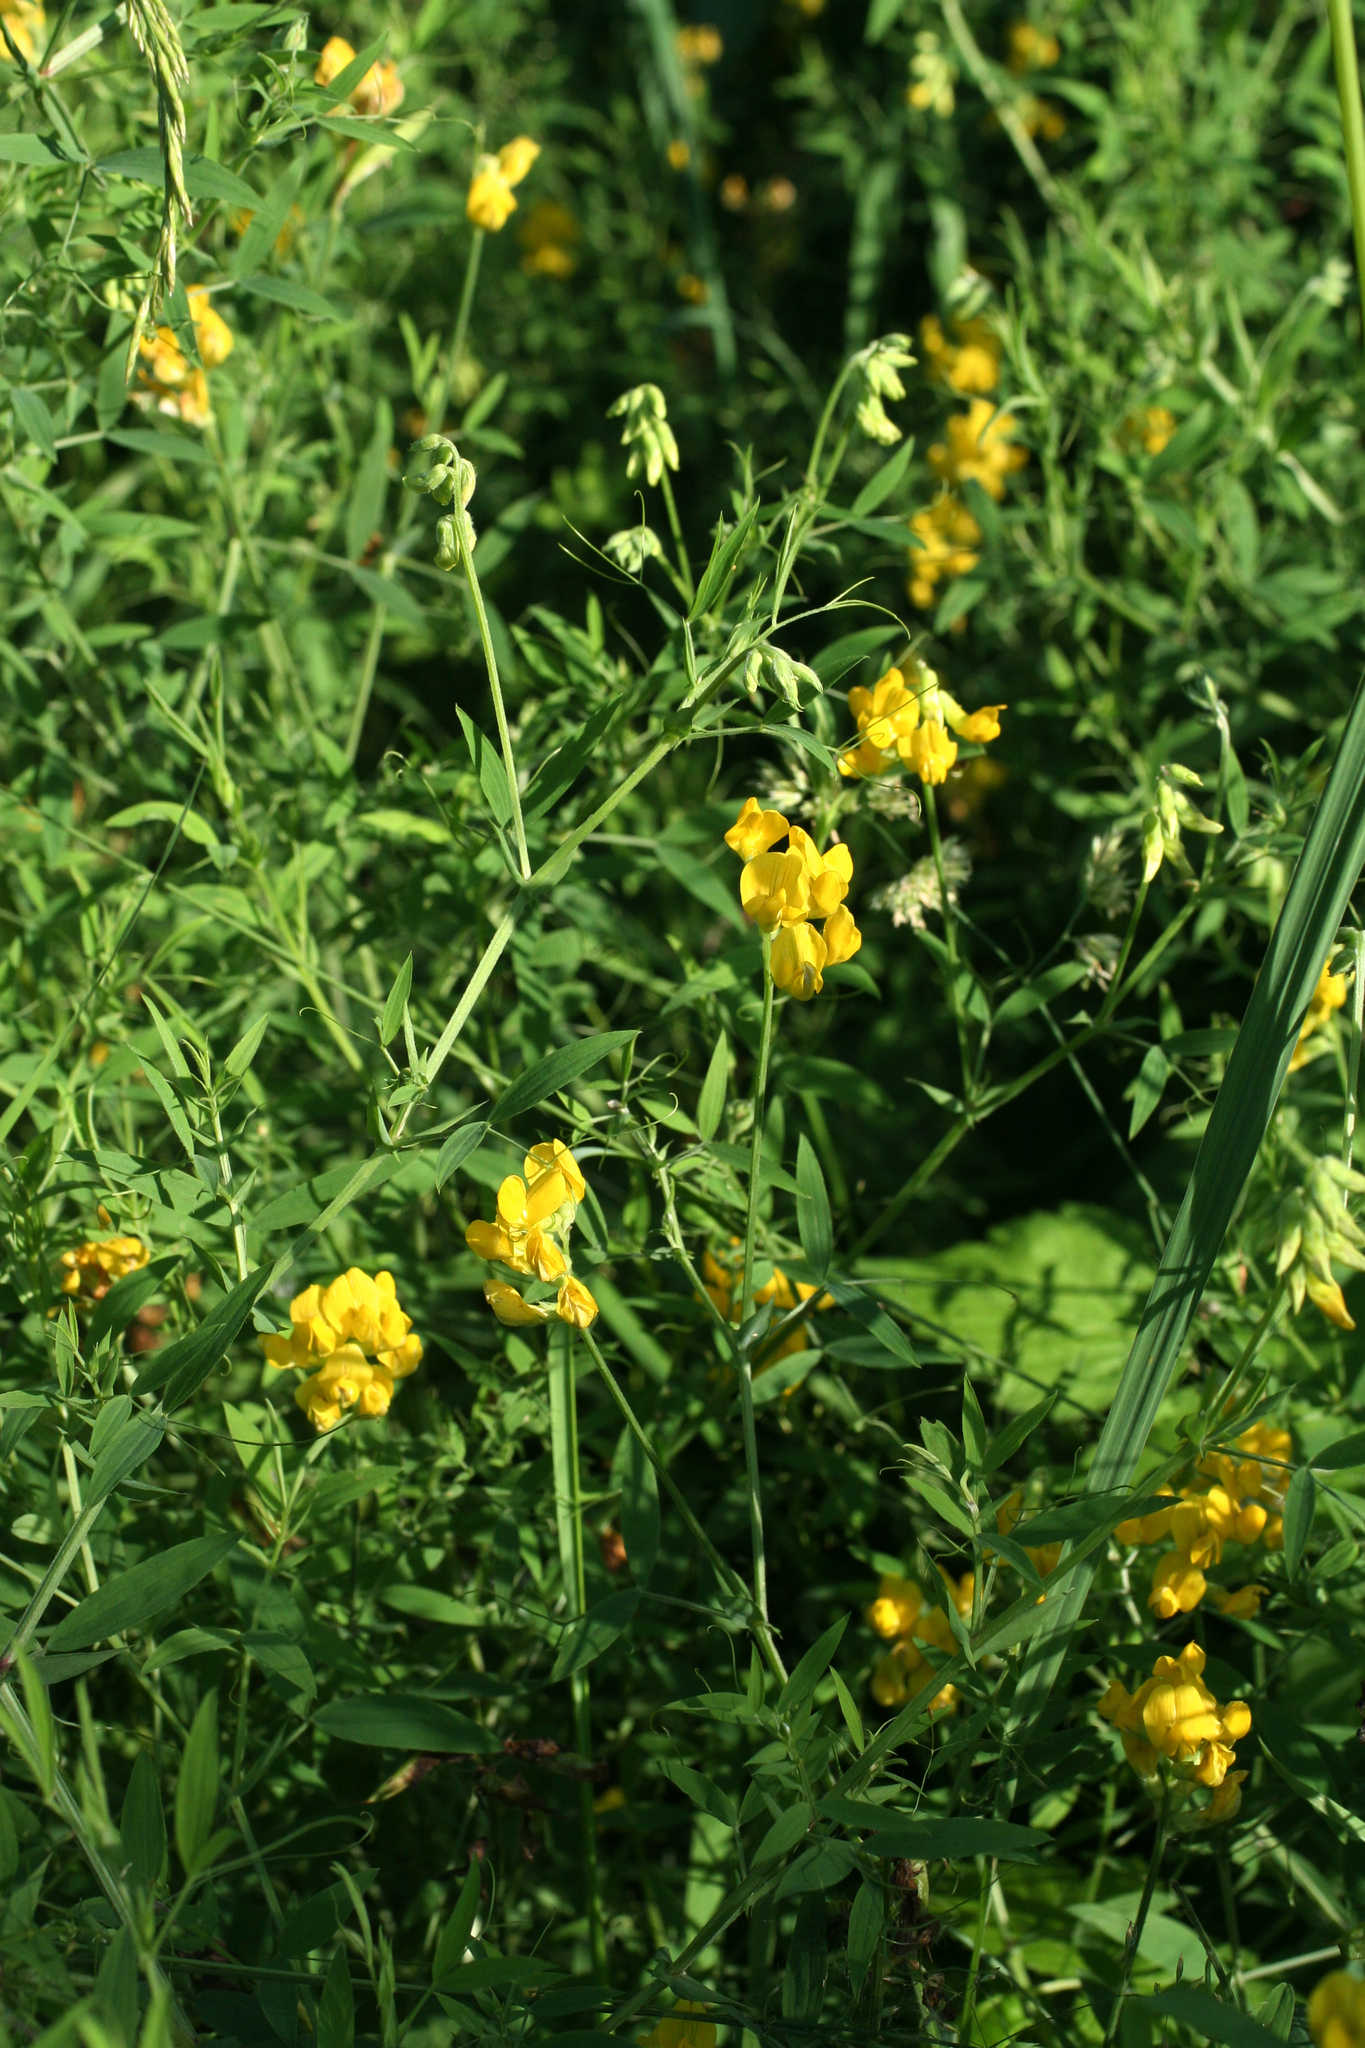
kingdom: Plantae
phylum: Tracheophyta
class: Magnoliopsida
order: Fabales
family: Fabaceae
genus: Lathyrus
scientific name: Lathyrus pratensis
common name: Meadow vetchling
